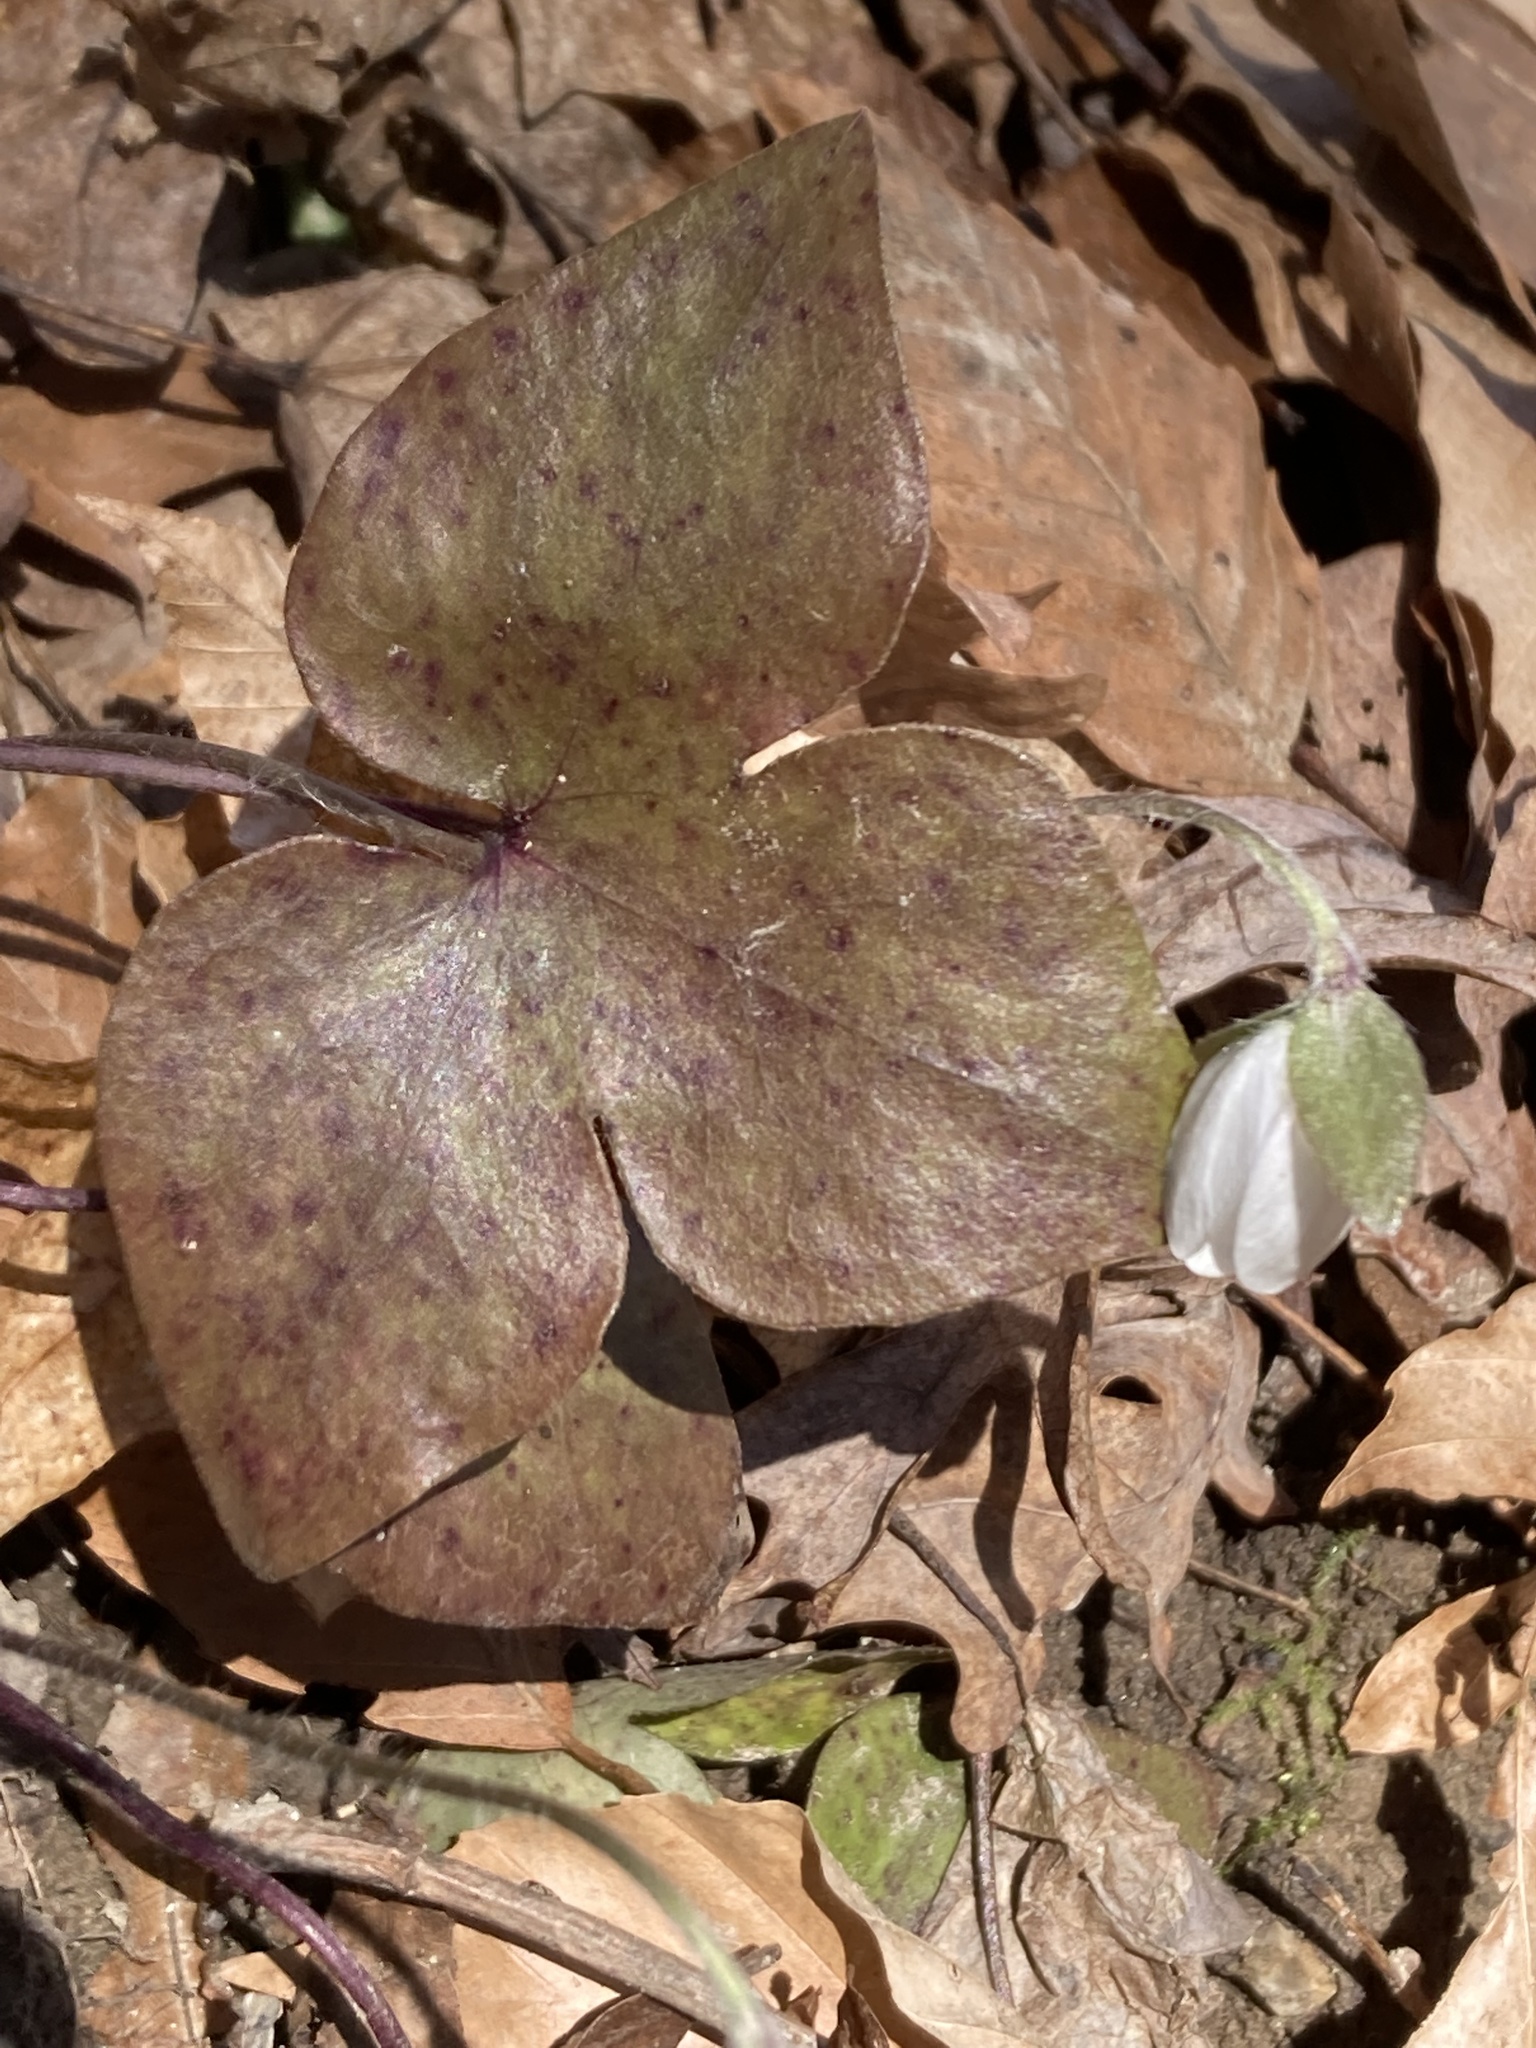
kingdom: Plantae
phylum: Tracheophyta
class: Magnoliopsida
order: Ranunculales
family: Ranunculaceae
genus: Hepatica
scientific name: Hepatica acutiloba
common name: Sharp-lobed hepatica
